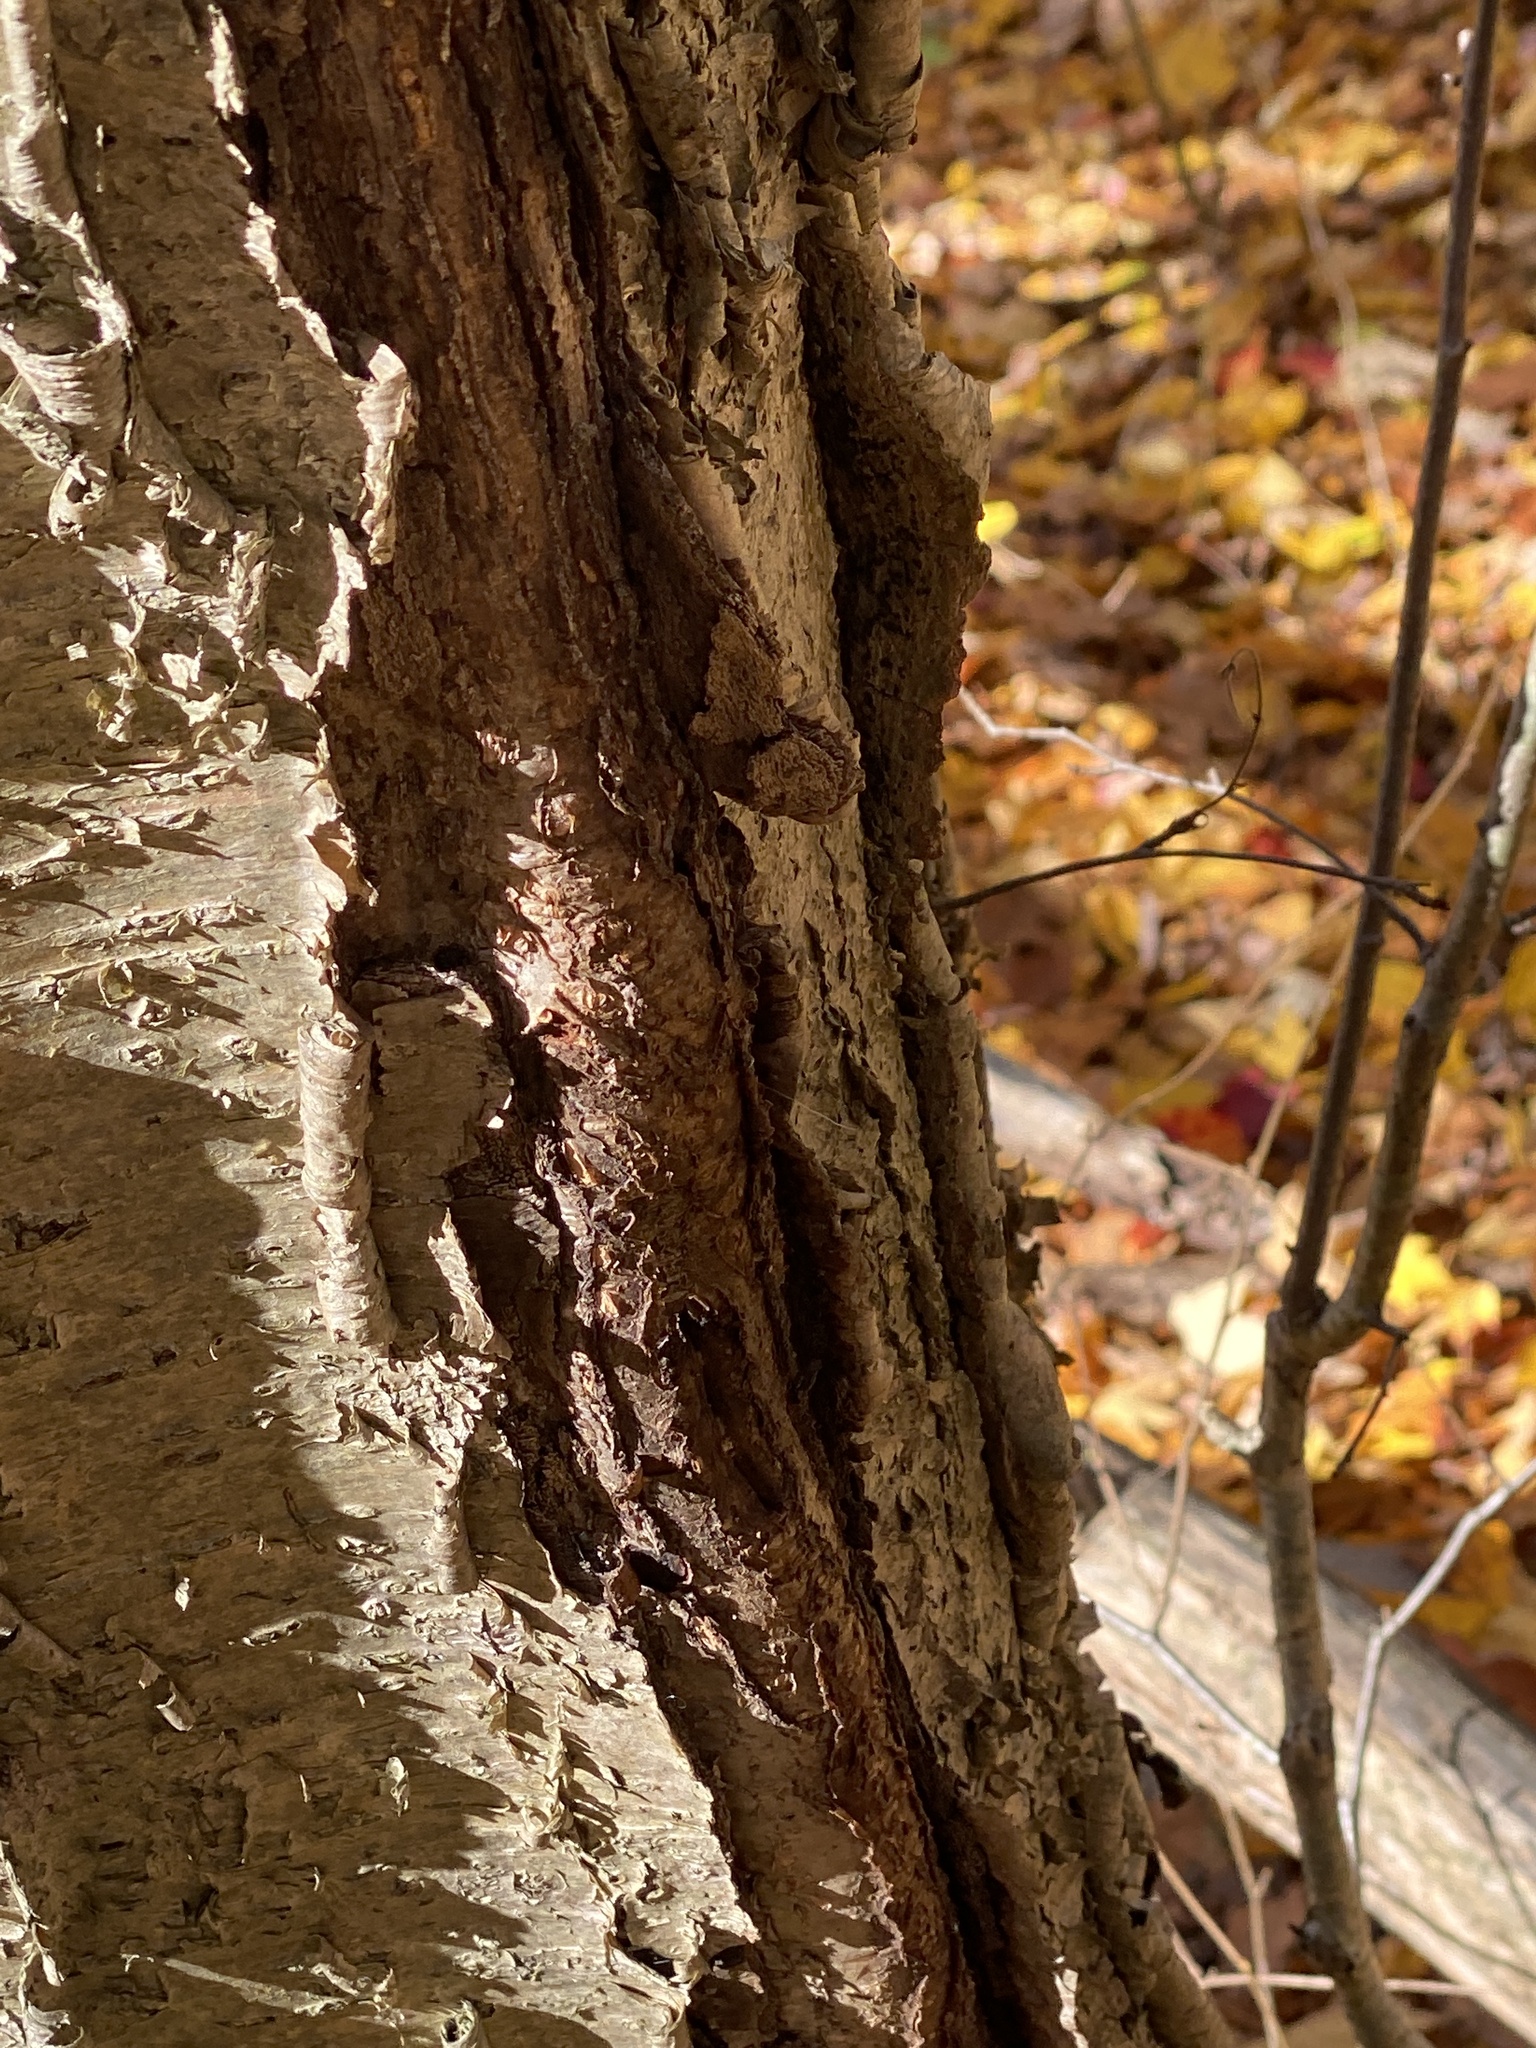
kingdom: Plantae
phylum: Tracheophyta
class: Magnoliopsida
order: Fagales
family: Betulaceae
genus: Betula
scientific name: Betula alleghaniensis
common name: Yellow birch
